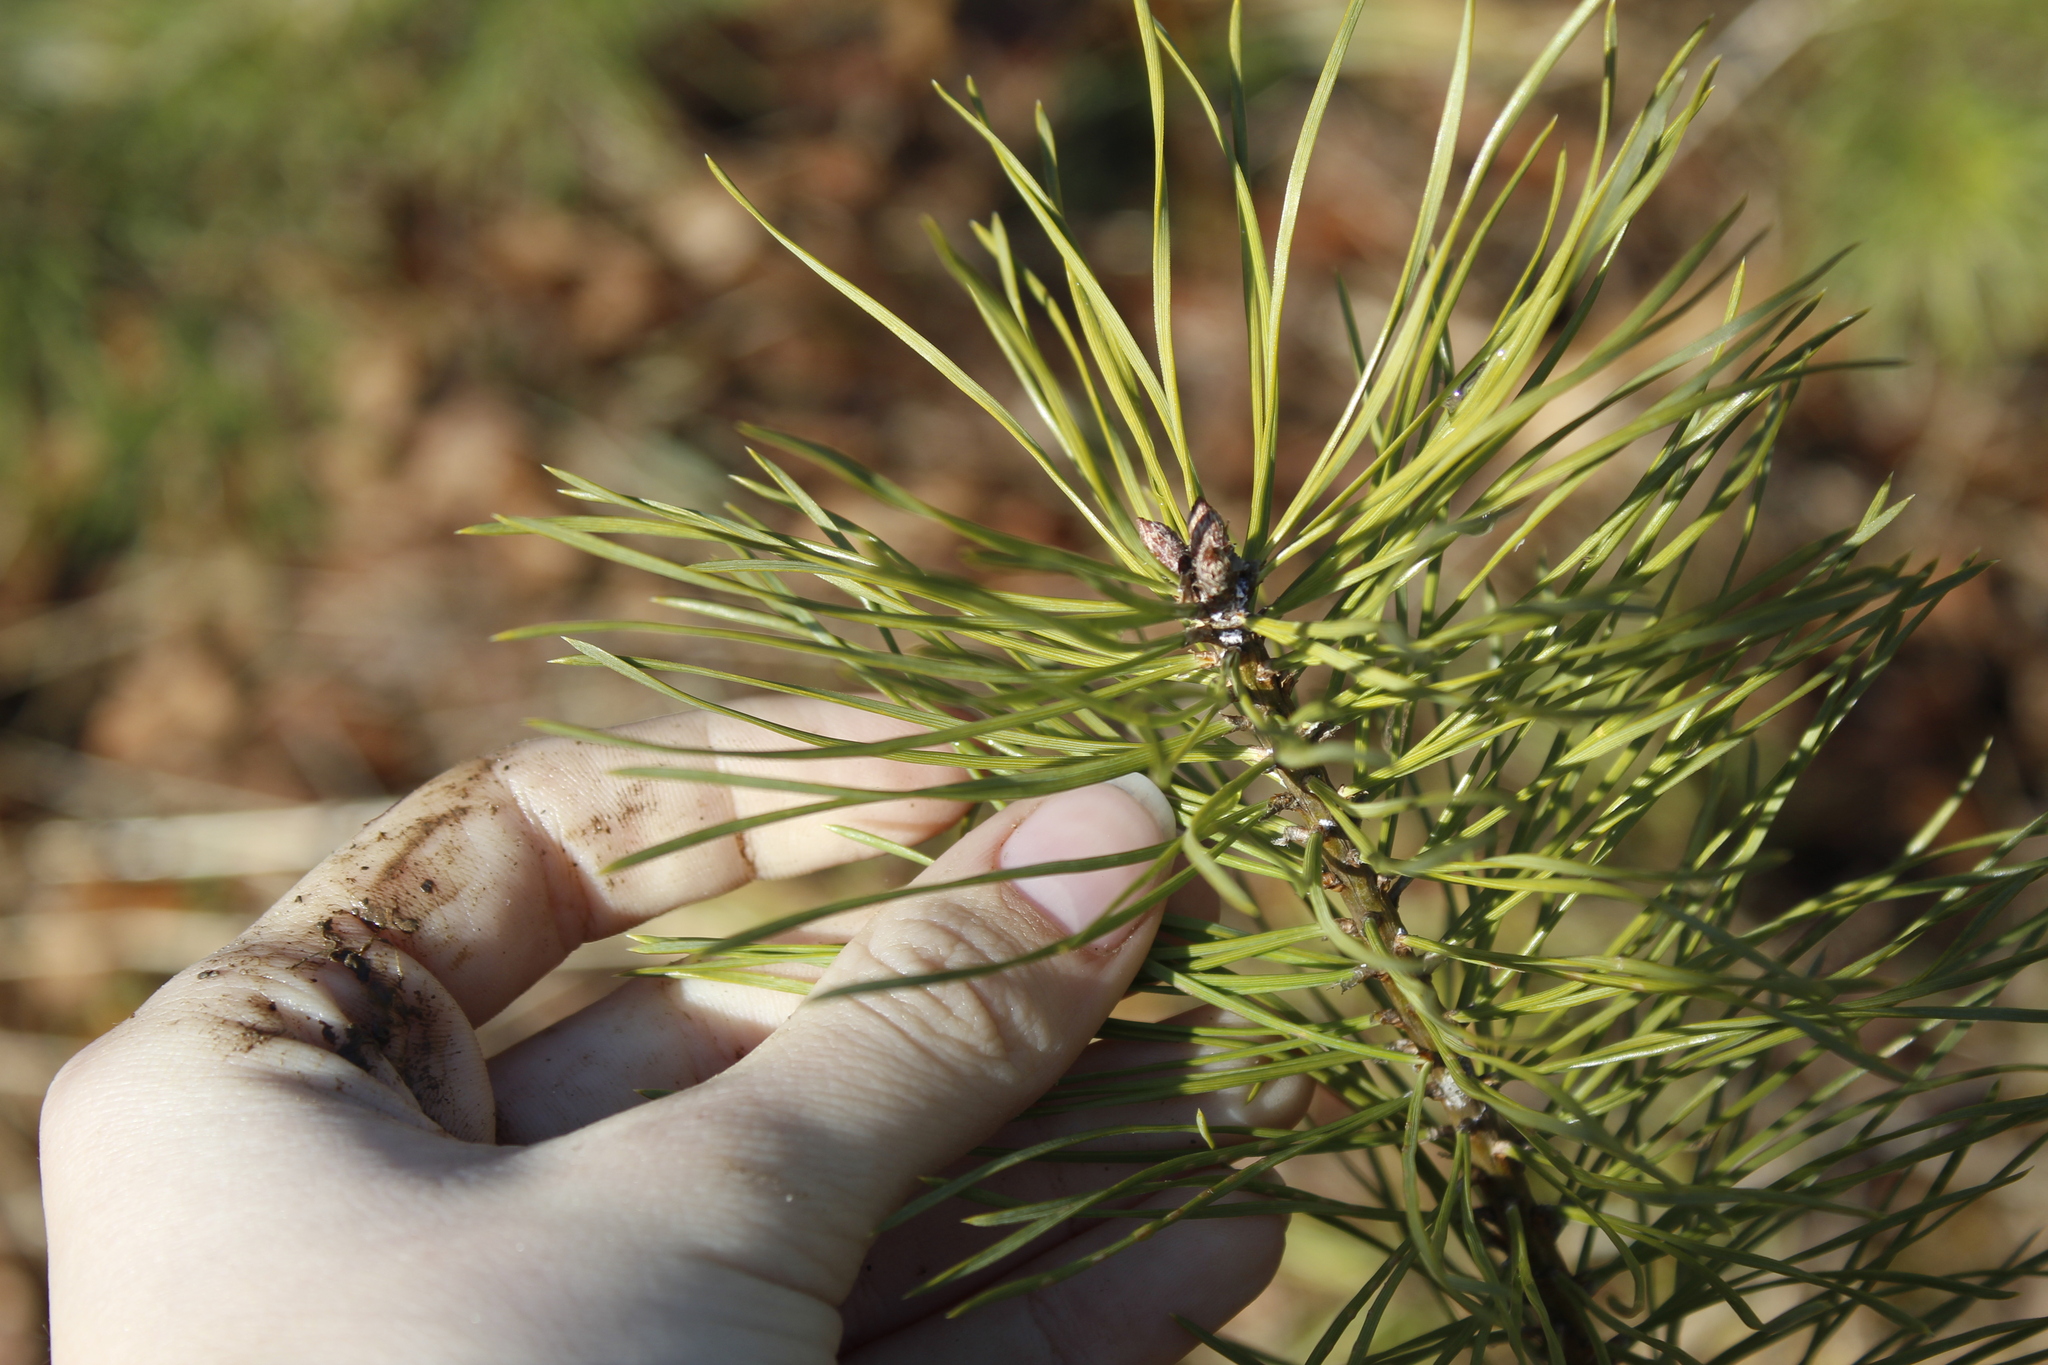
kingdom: Plantae
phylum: Tracheophyta
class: Pinopsida
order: Pinales
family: Pinaceae
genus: Pinus
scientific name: Pinus rigida
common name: Pitch pine
